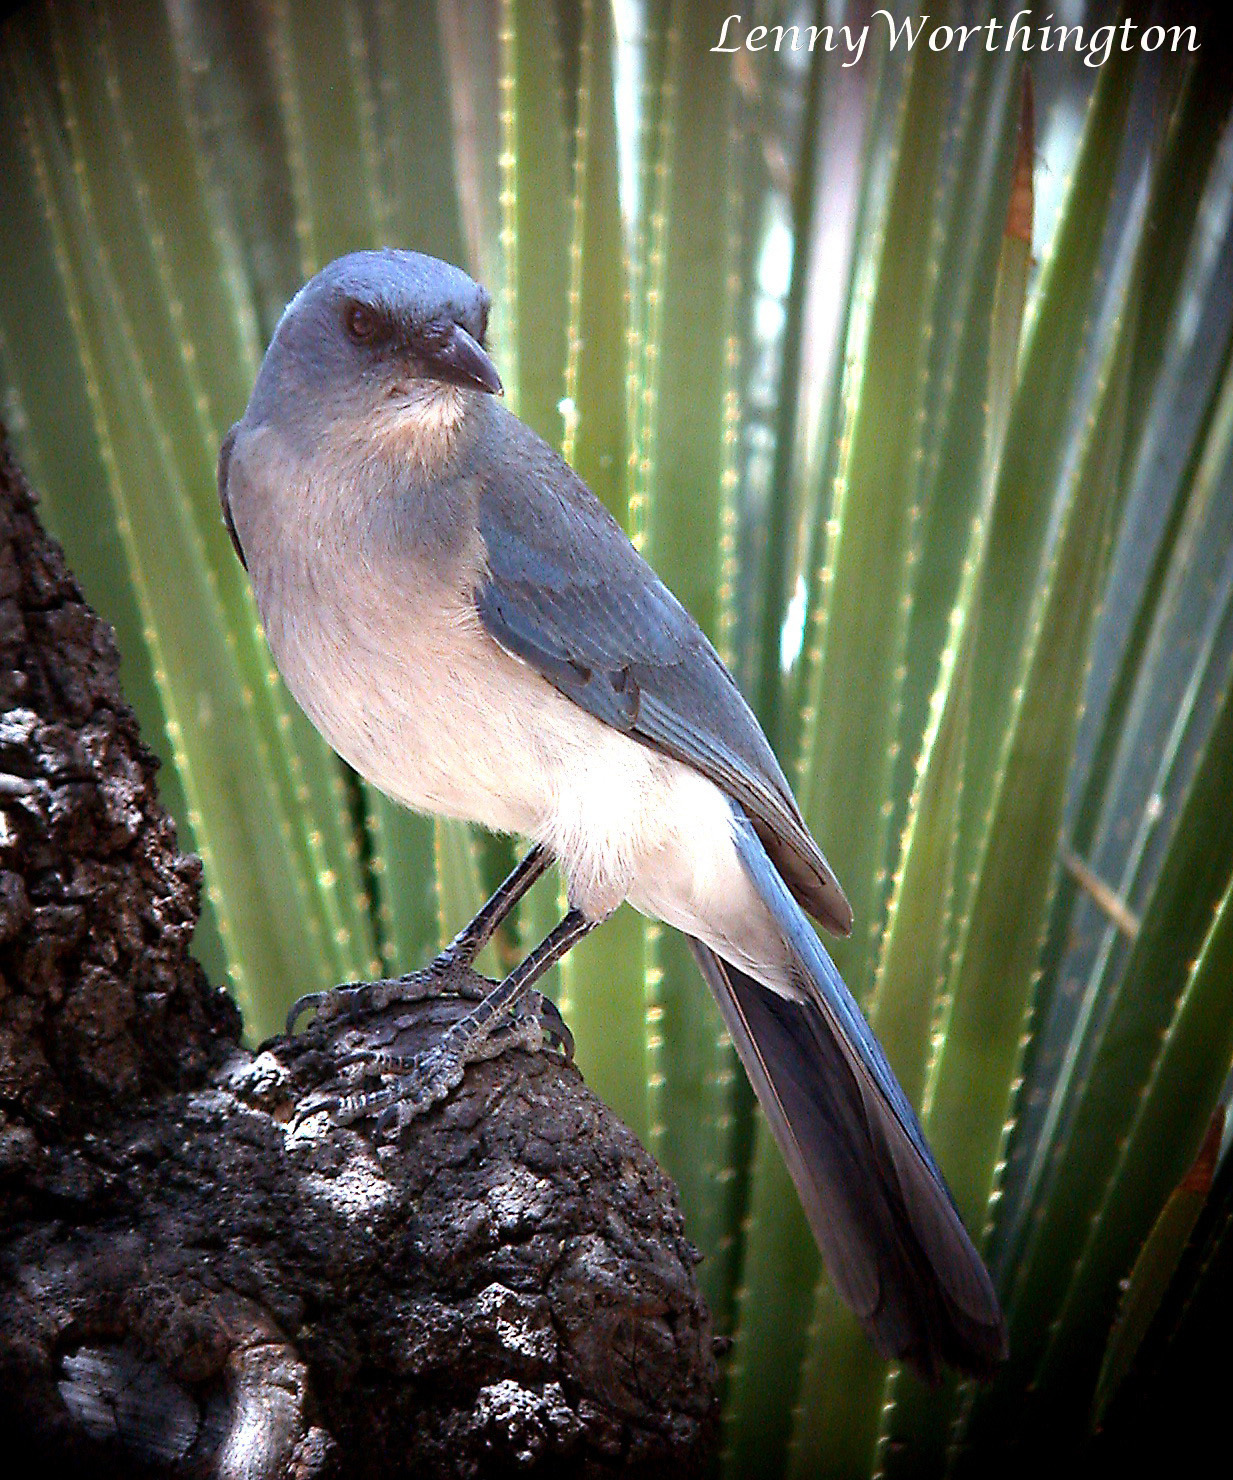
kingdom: Animalia
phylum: Chordata
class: Aves
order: Passeriformes
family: Corvidae
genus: Aphelocoma
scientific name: Aphelocoma wollweberi
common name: Mexican jay
